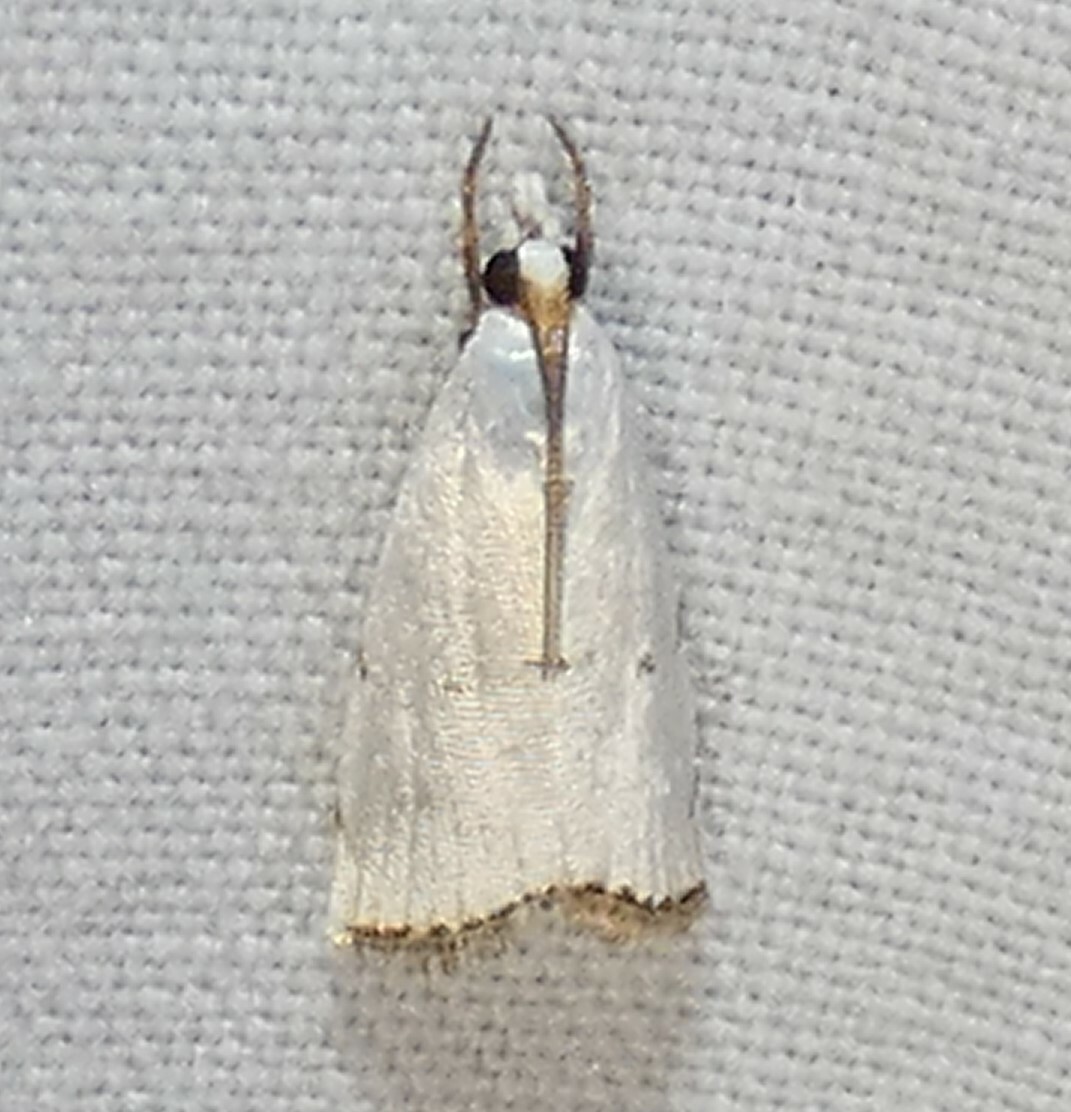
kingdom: Animalia
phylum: Arthropoda
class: Insecta
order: Lepidoptera
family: Crambidae
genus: Argyria
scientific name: Argyria pusillalis
